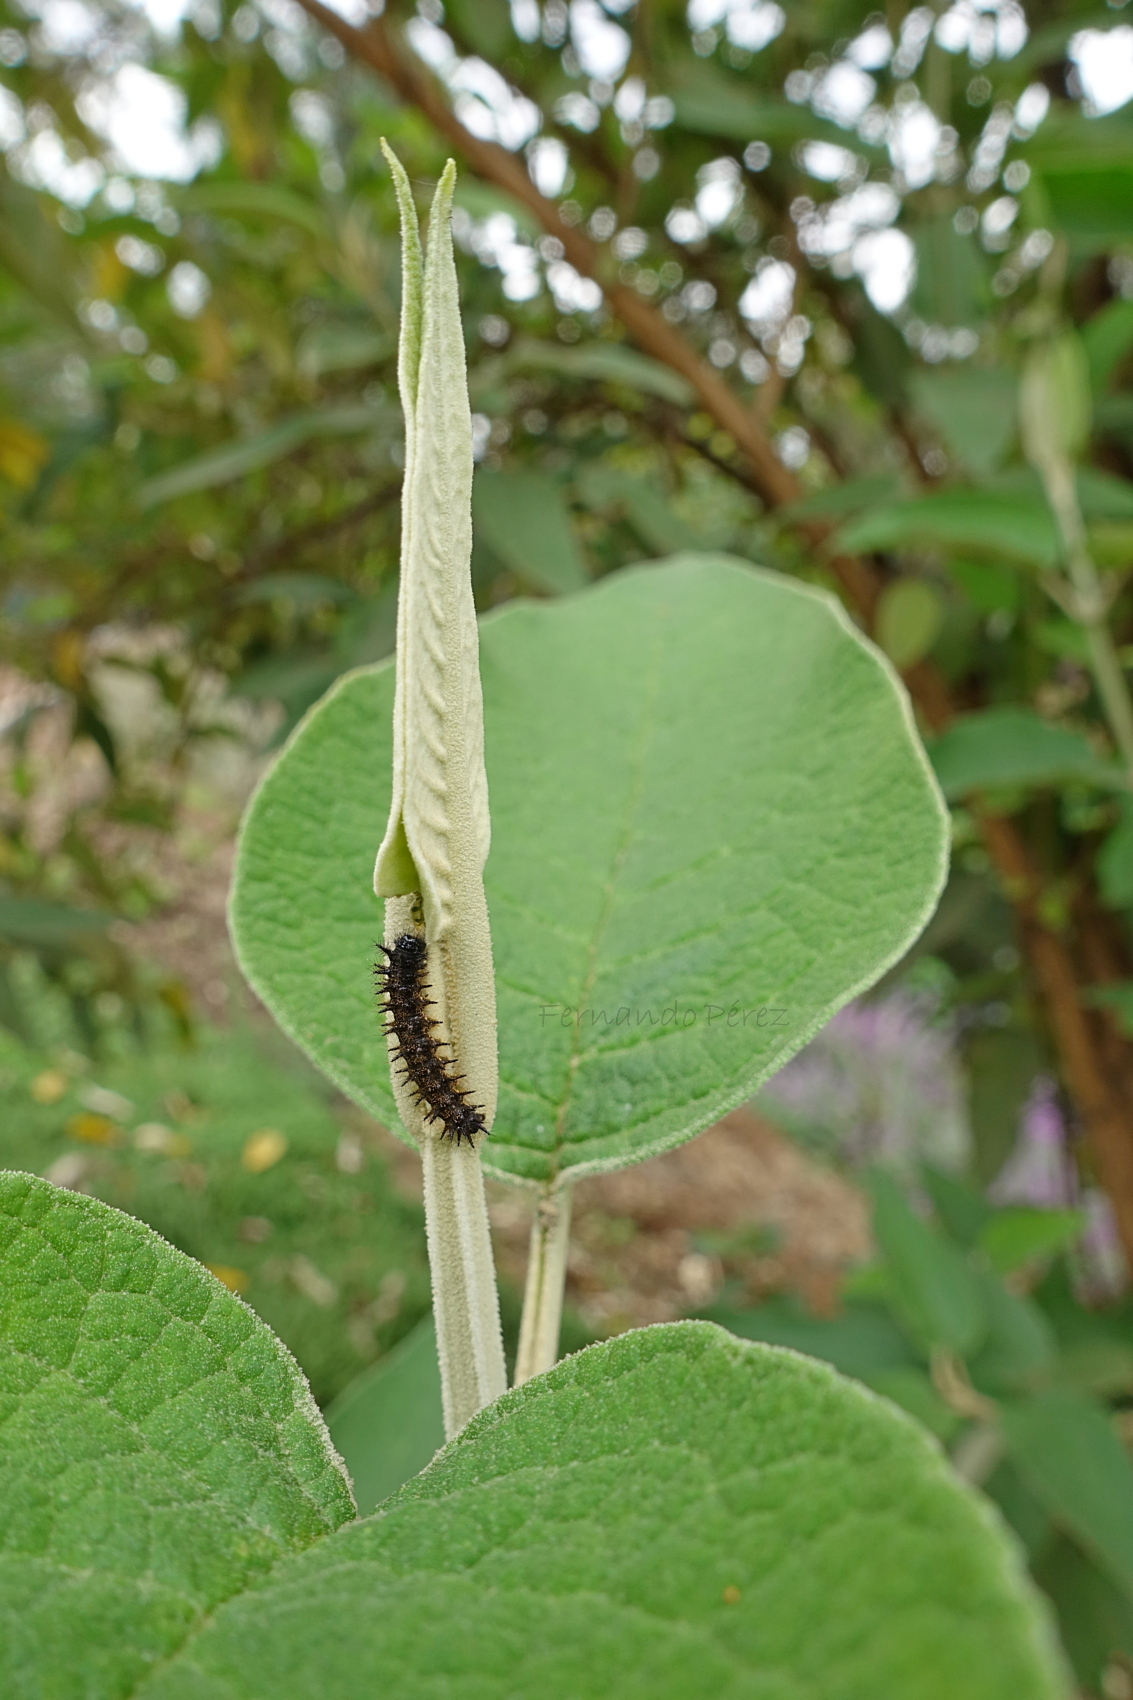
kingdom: Animalia
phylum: Arthropoda
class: Insecta
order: Lepidoptera
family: Nymphalidae
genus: Chlosyne
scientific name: Chlosyne ehrenbergii
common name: White-rayed patch
